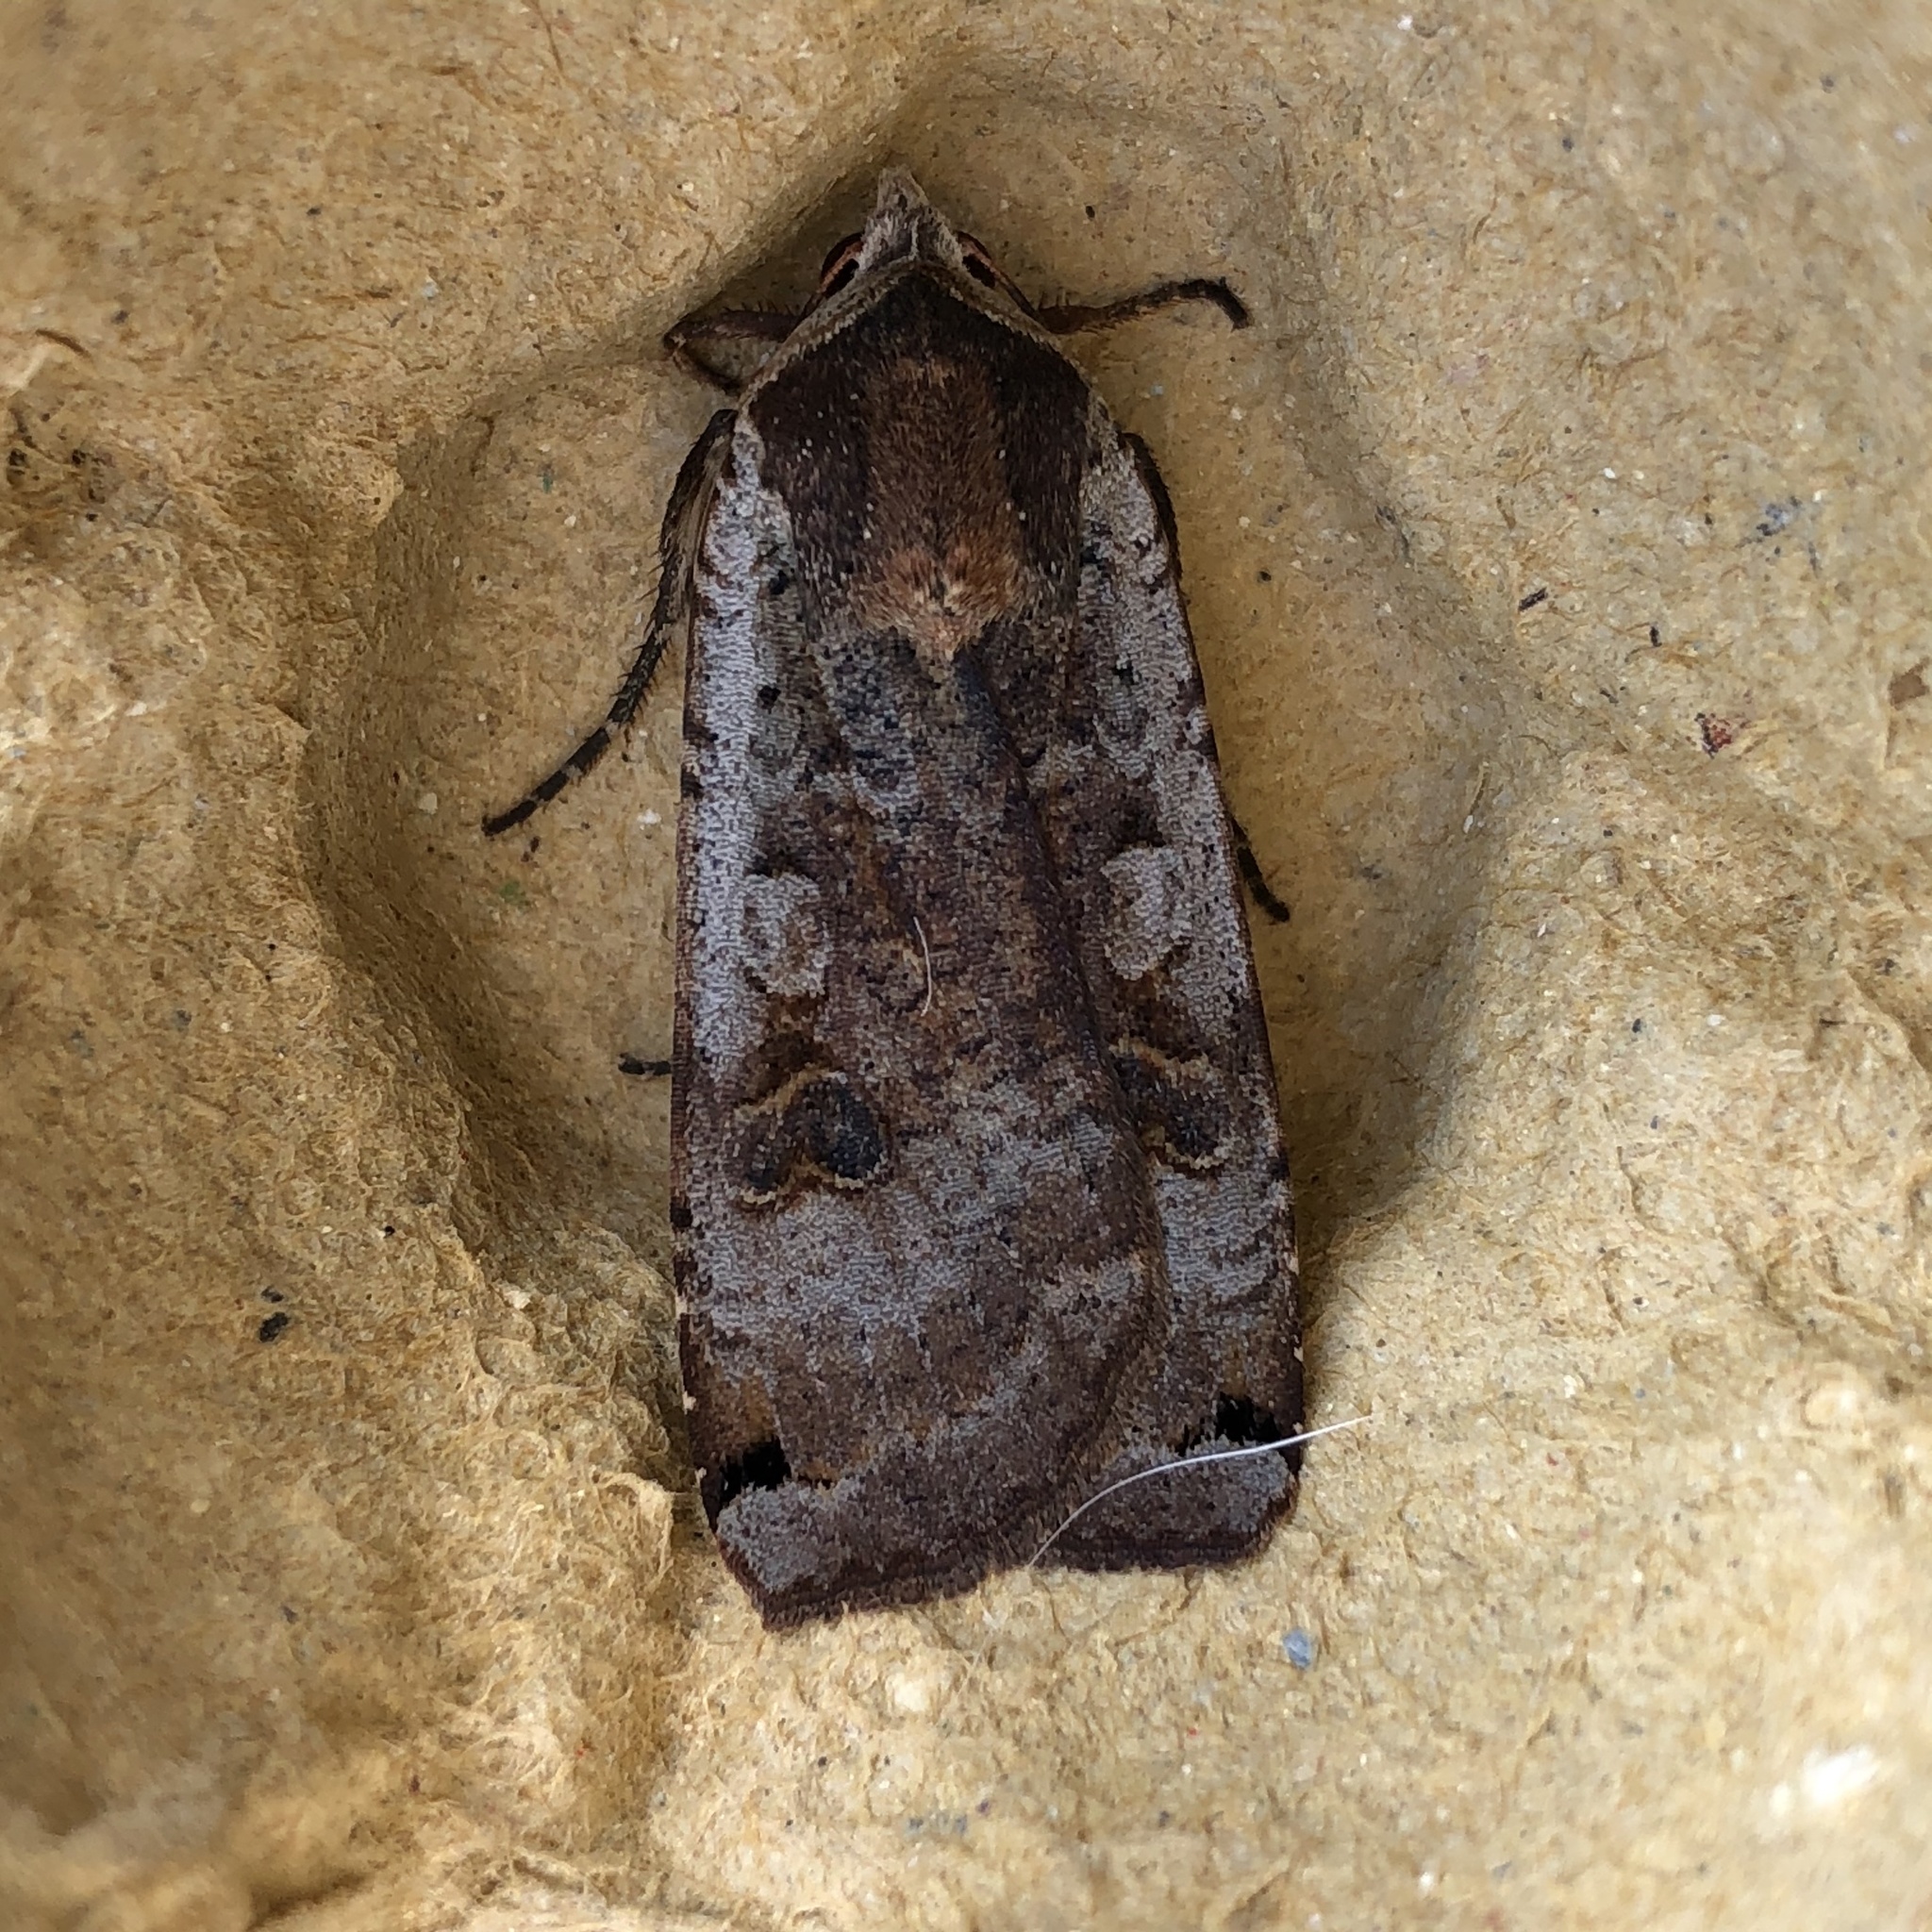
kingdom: Animalia
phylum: Arthropoda
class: Insecta
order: Lepidoptera
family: Noctuidae
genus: Noctua
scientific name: Noctua pronuba
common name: Large yellow underwing
